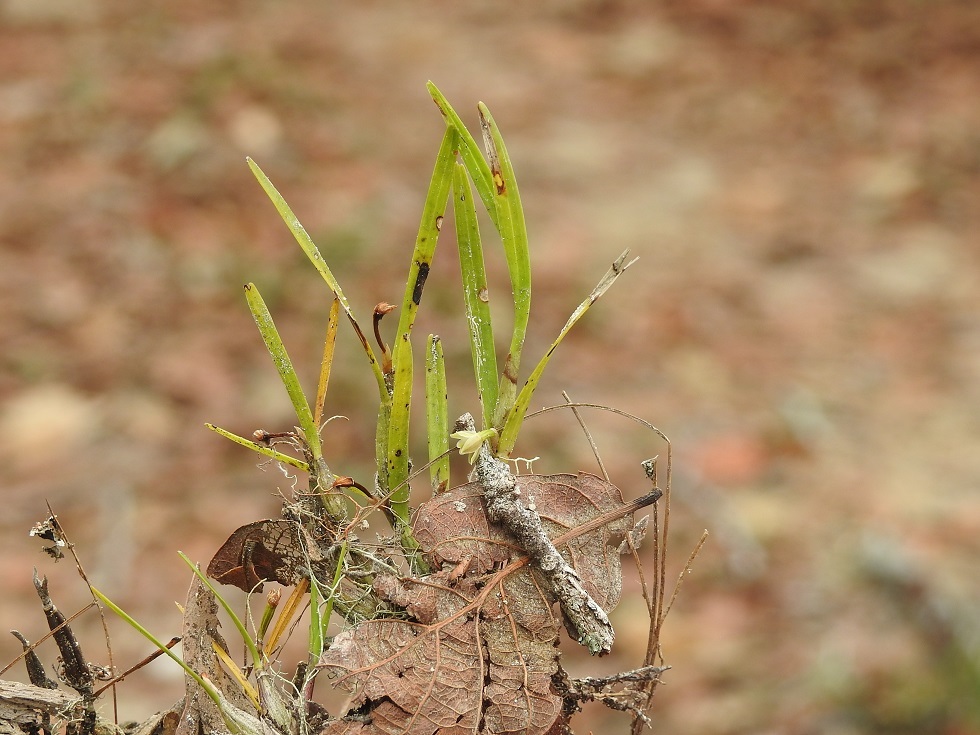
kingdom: Plantae
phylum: Tracheophyta
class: Liliopsida
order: Asparagales
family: Orchidaceae
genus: Scaphyglottis
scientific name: Scaphyglottis fasciculata
